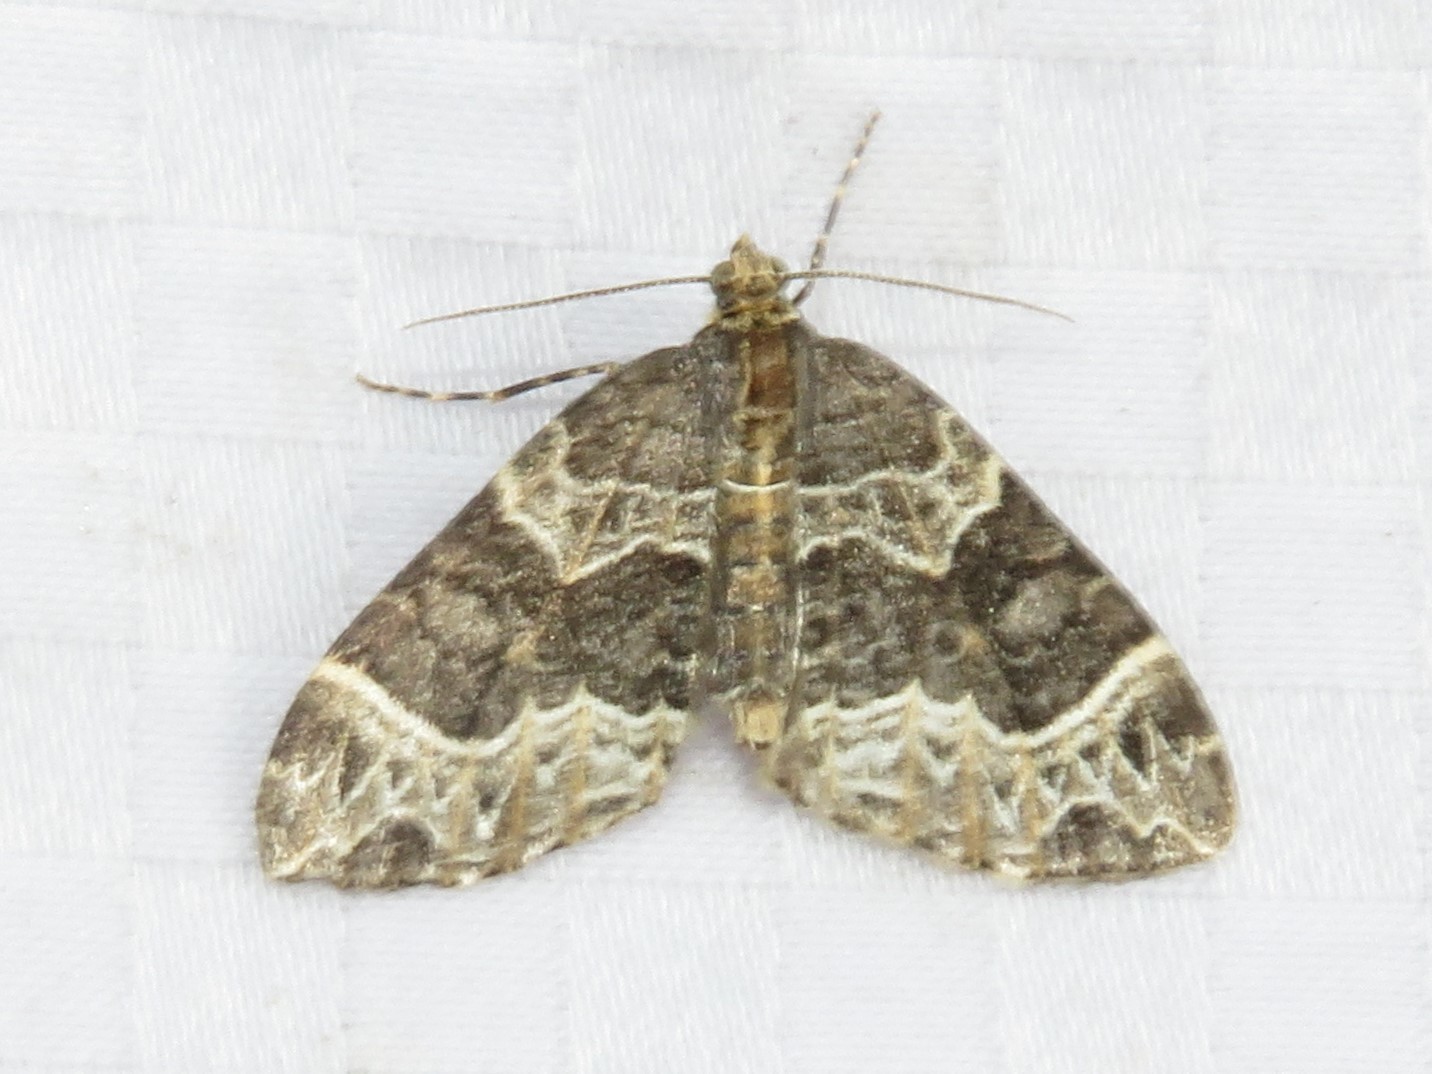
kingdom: Animalia
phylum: Arthropoda
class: Insecta
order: Lepidoptera
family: Geometridae
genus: Ecliptopera
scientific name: Ecliptopera silaceata
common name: Small phoenix
